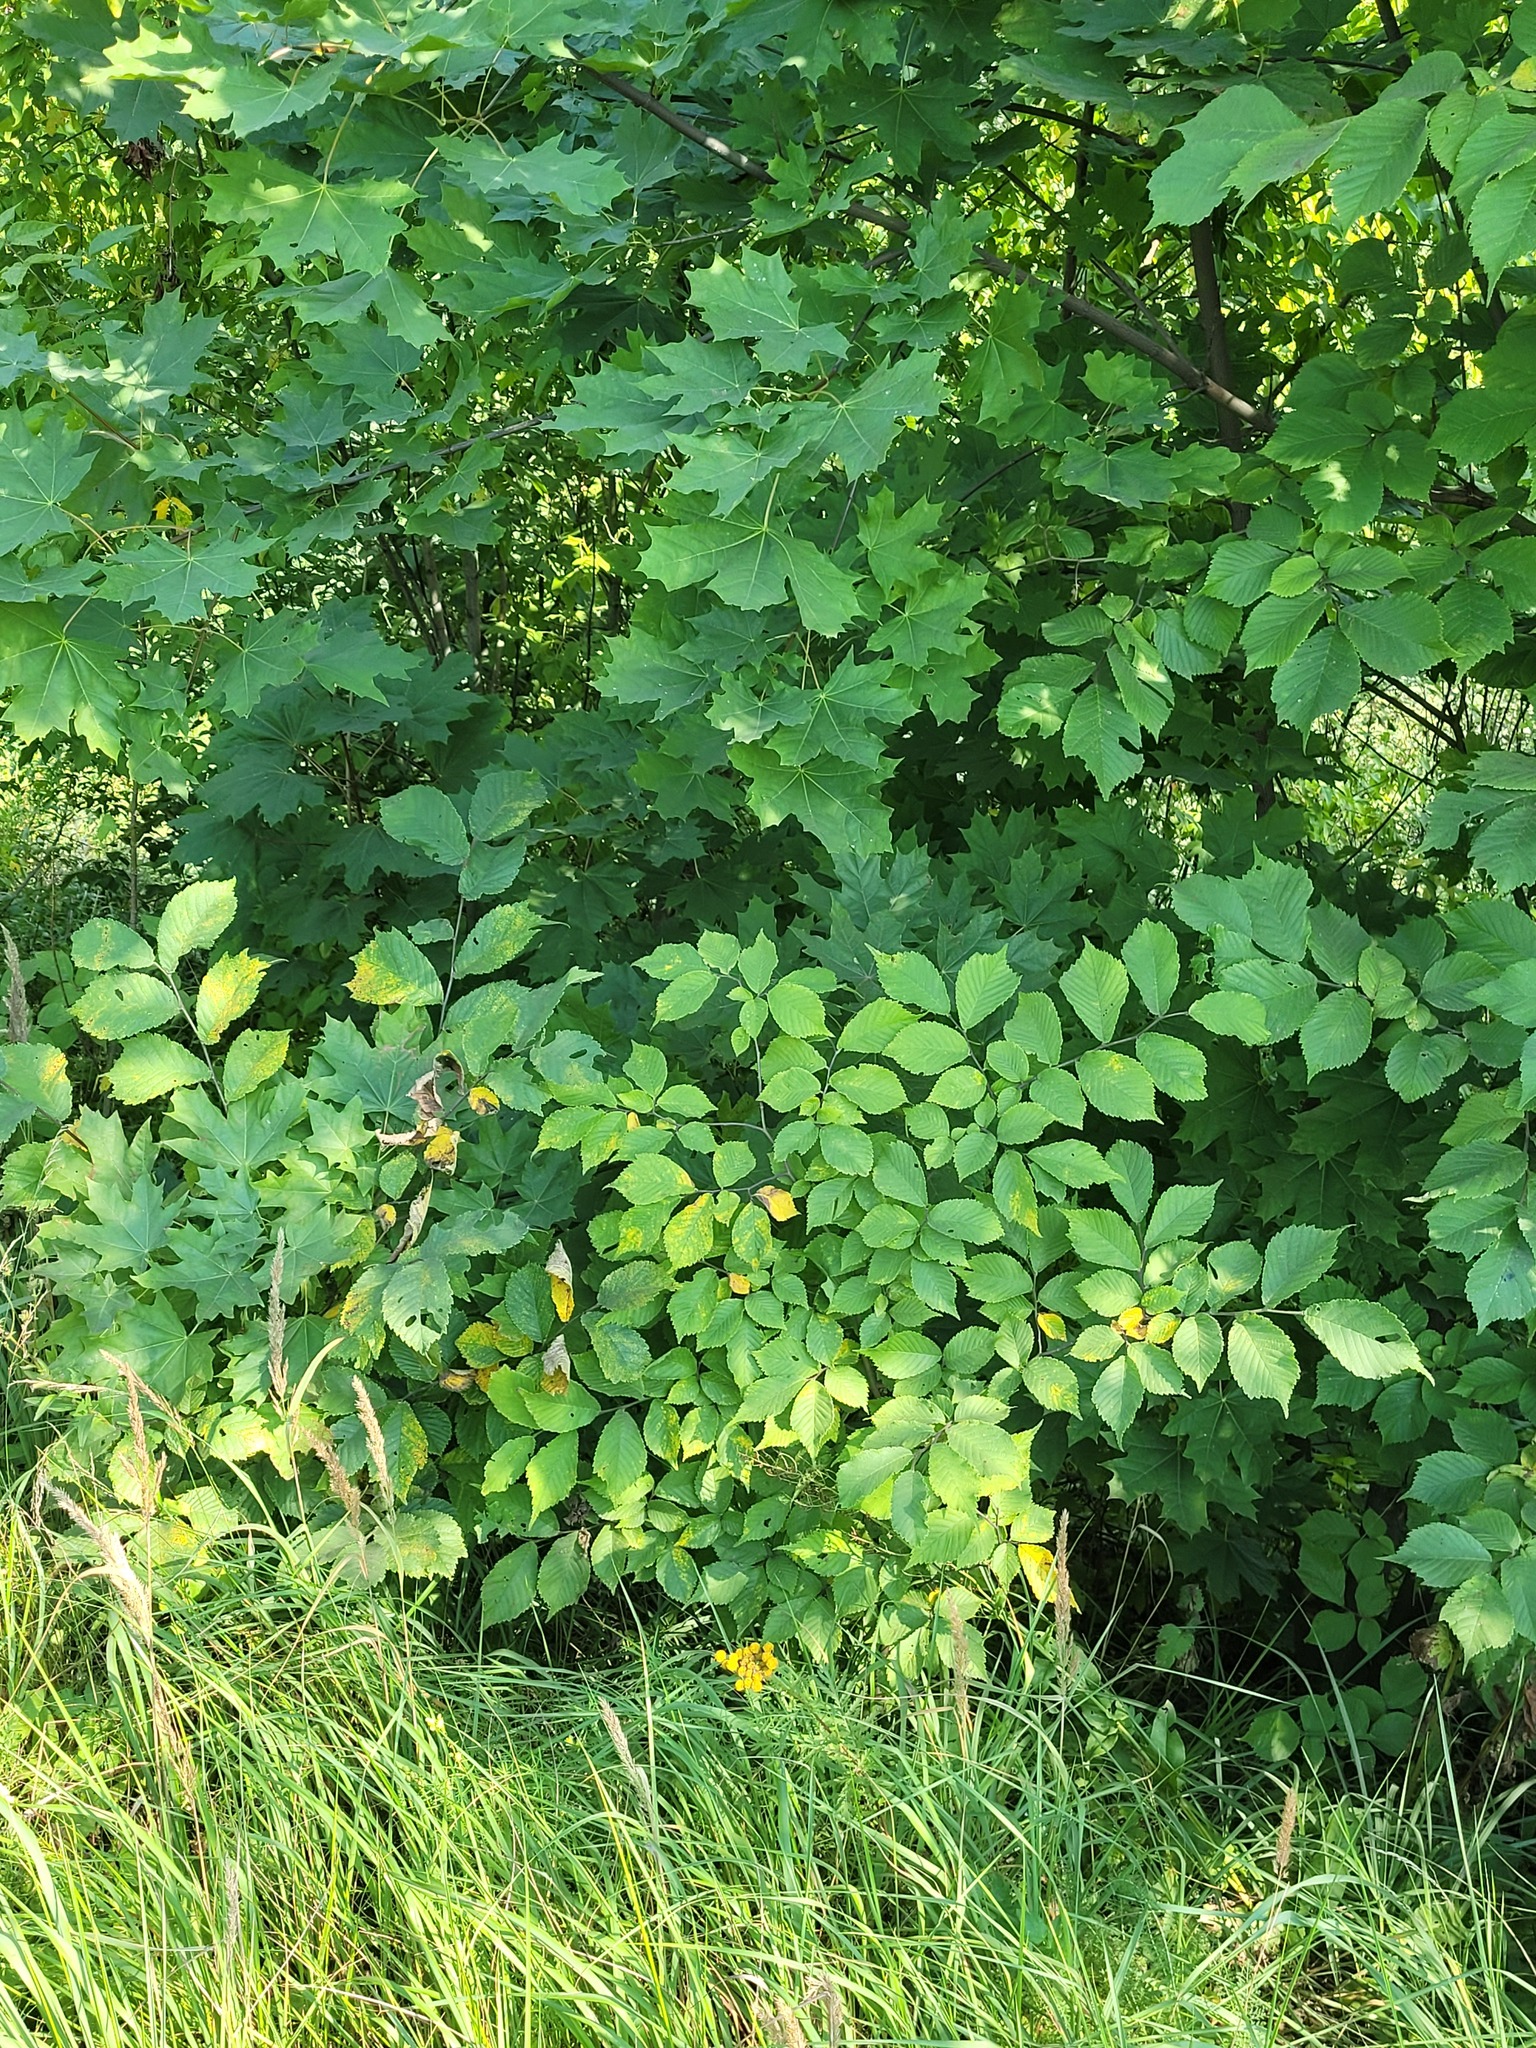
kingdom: Plantae
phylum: Tracheophyta
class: Magnoliopsida
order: Rosales
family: Ulmaceae
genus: Ulmus
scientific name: Ulmus glabra
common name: Wych elm
